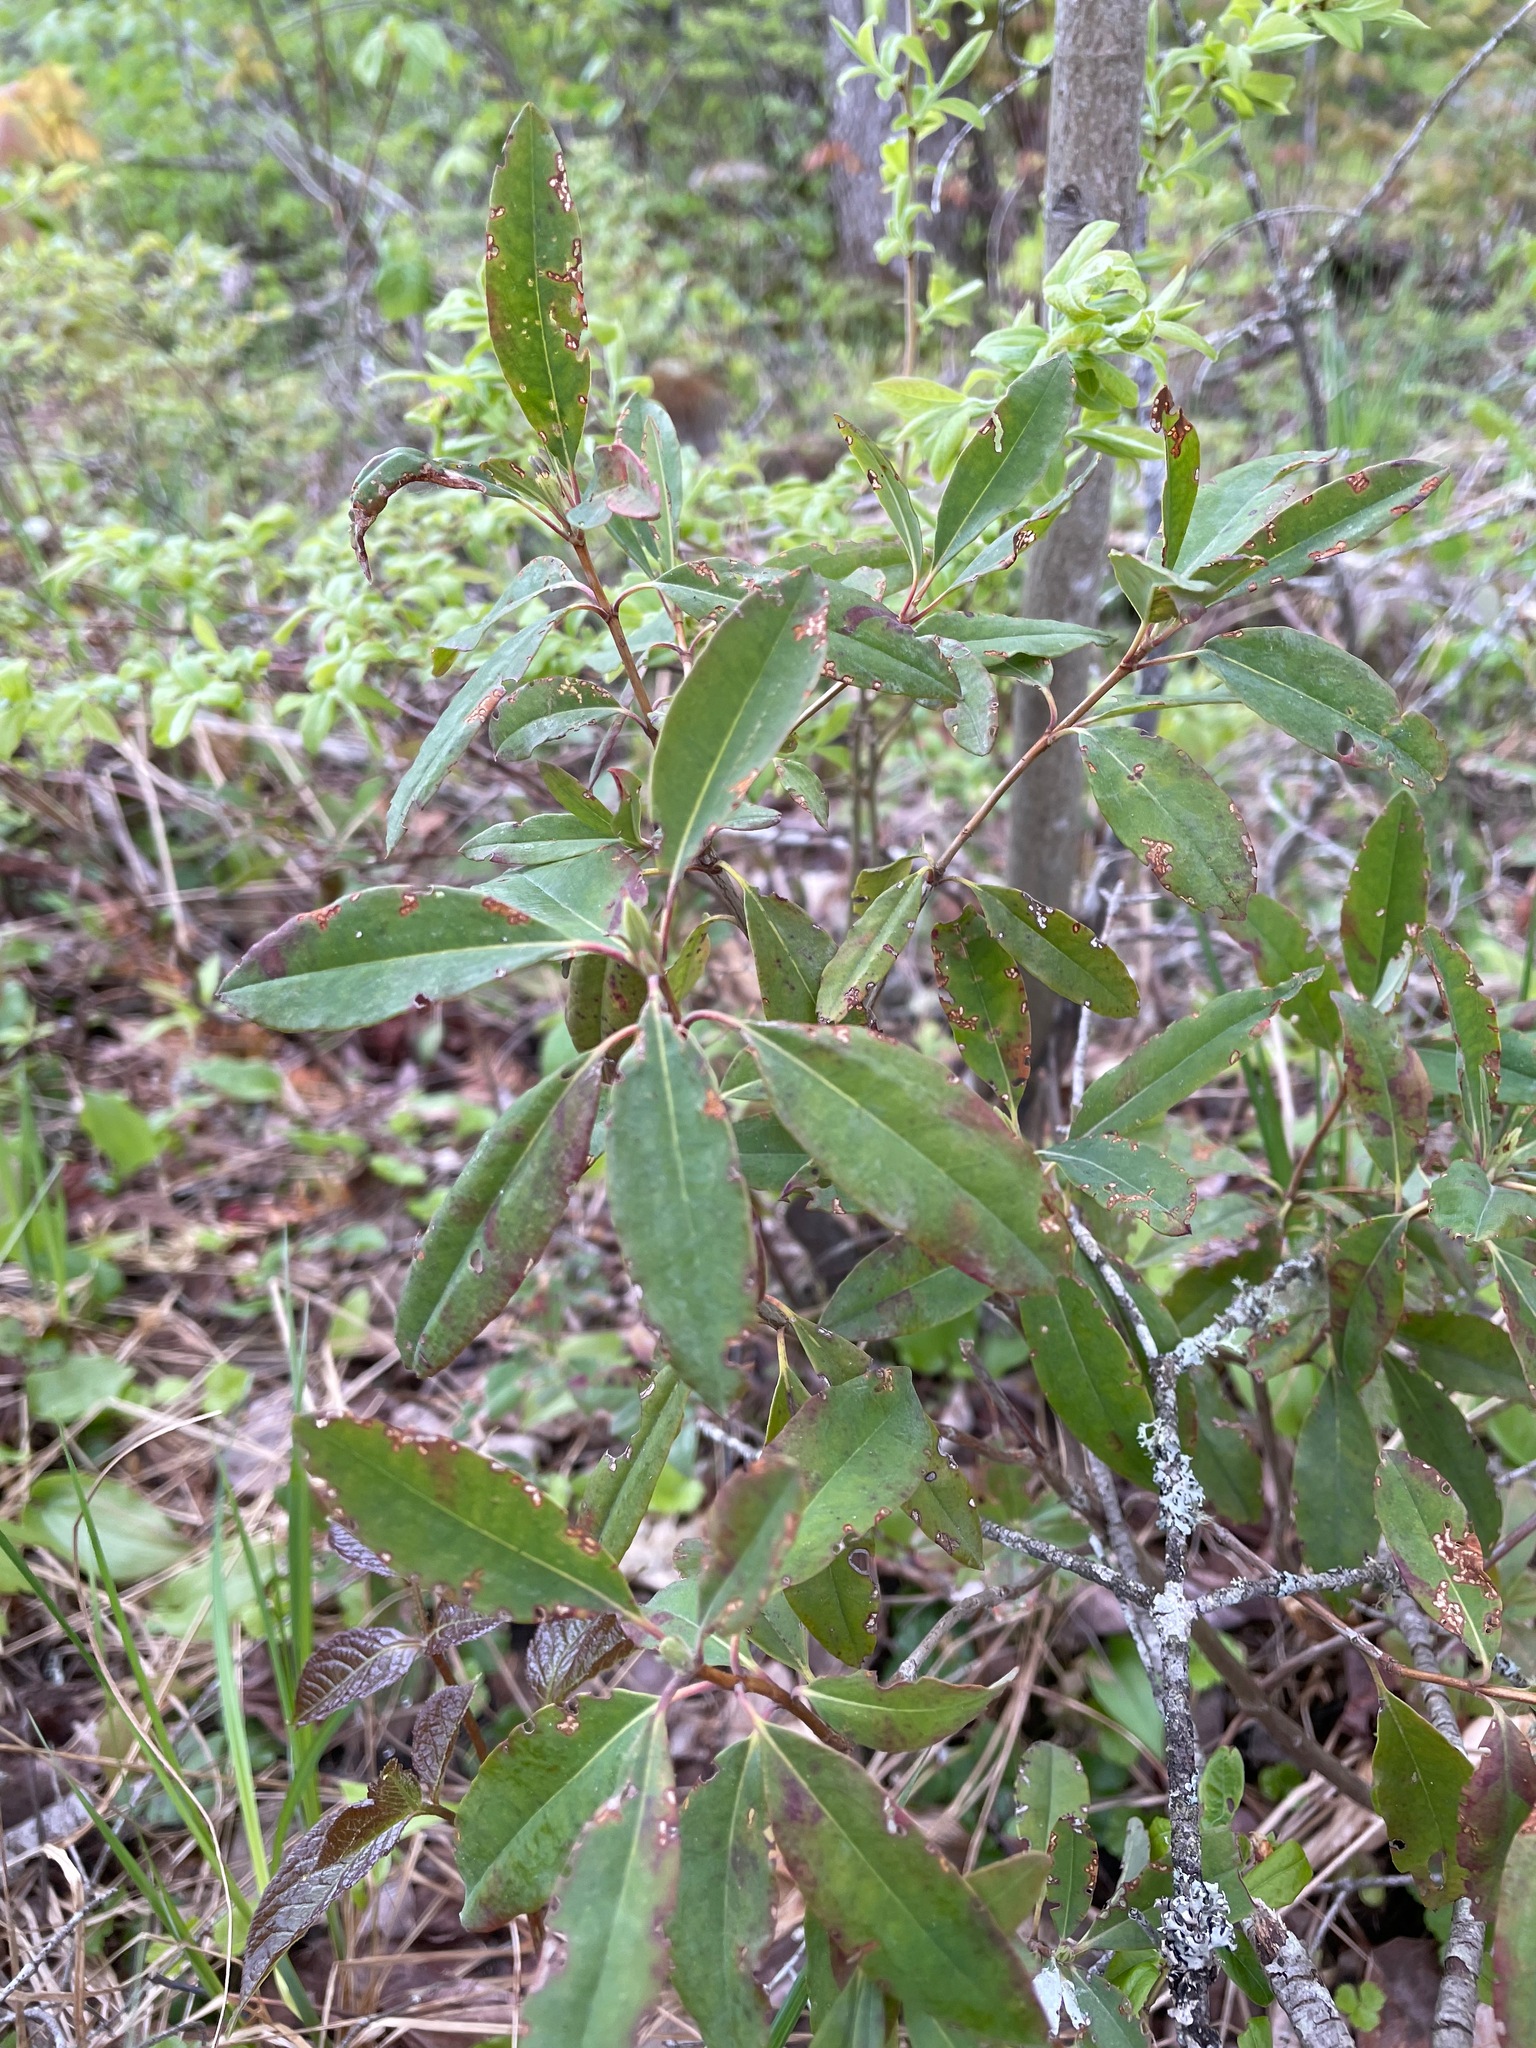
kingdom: Plantae
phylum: Tracheophyta
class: Magnoliopsida
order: Ericales
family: Ericaceae
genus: Kalmia
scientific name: Kalmia angustifolia
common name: Sheep-laurel
